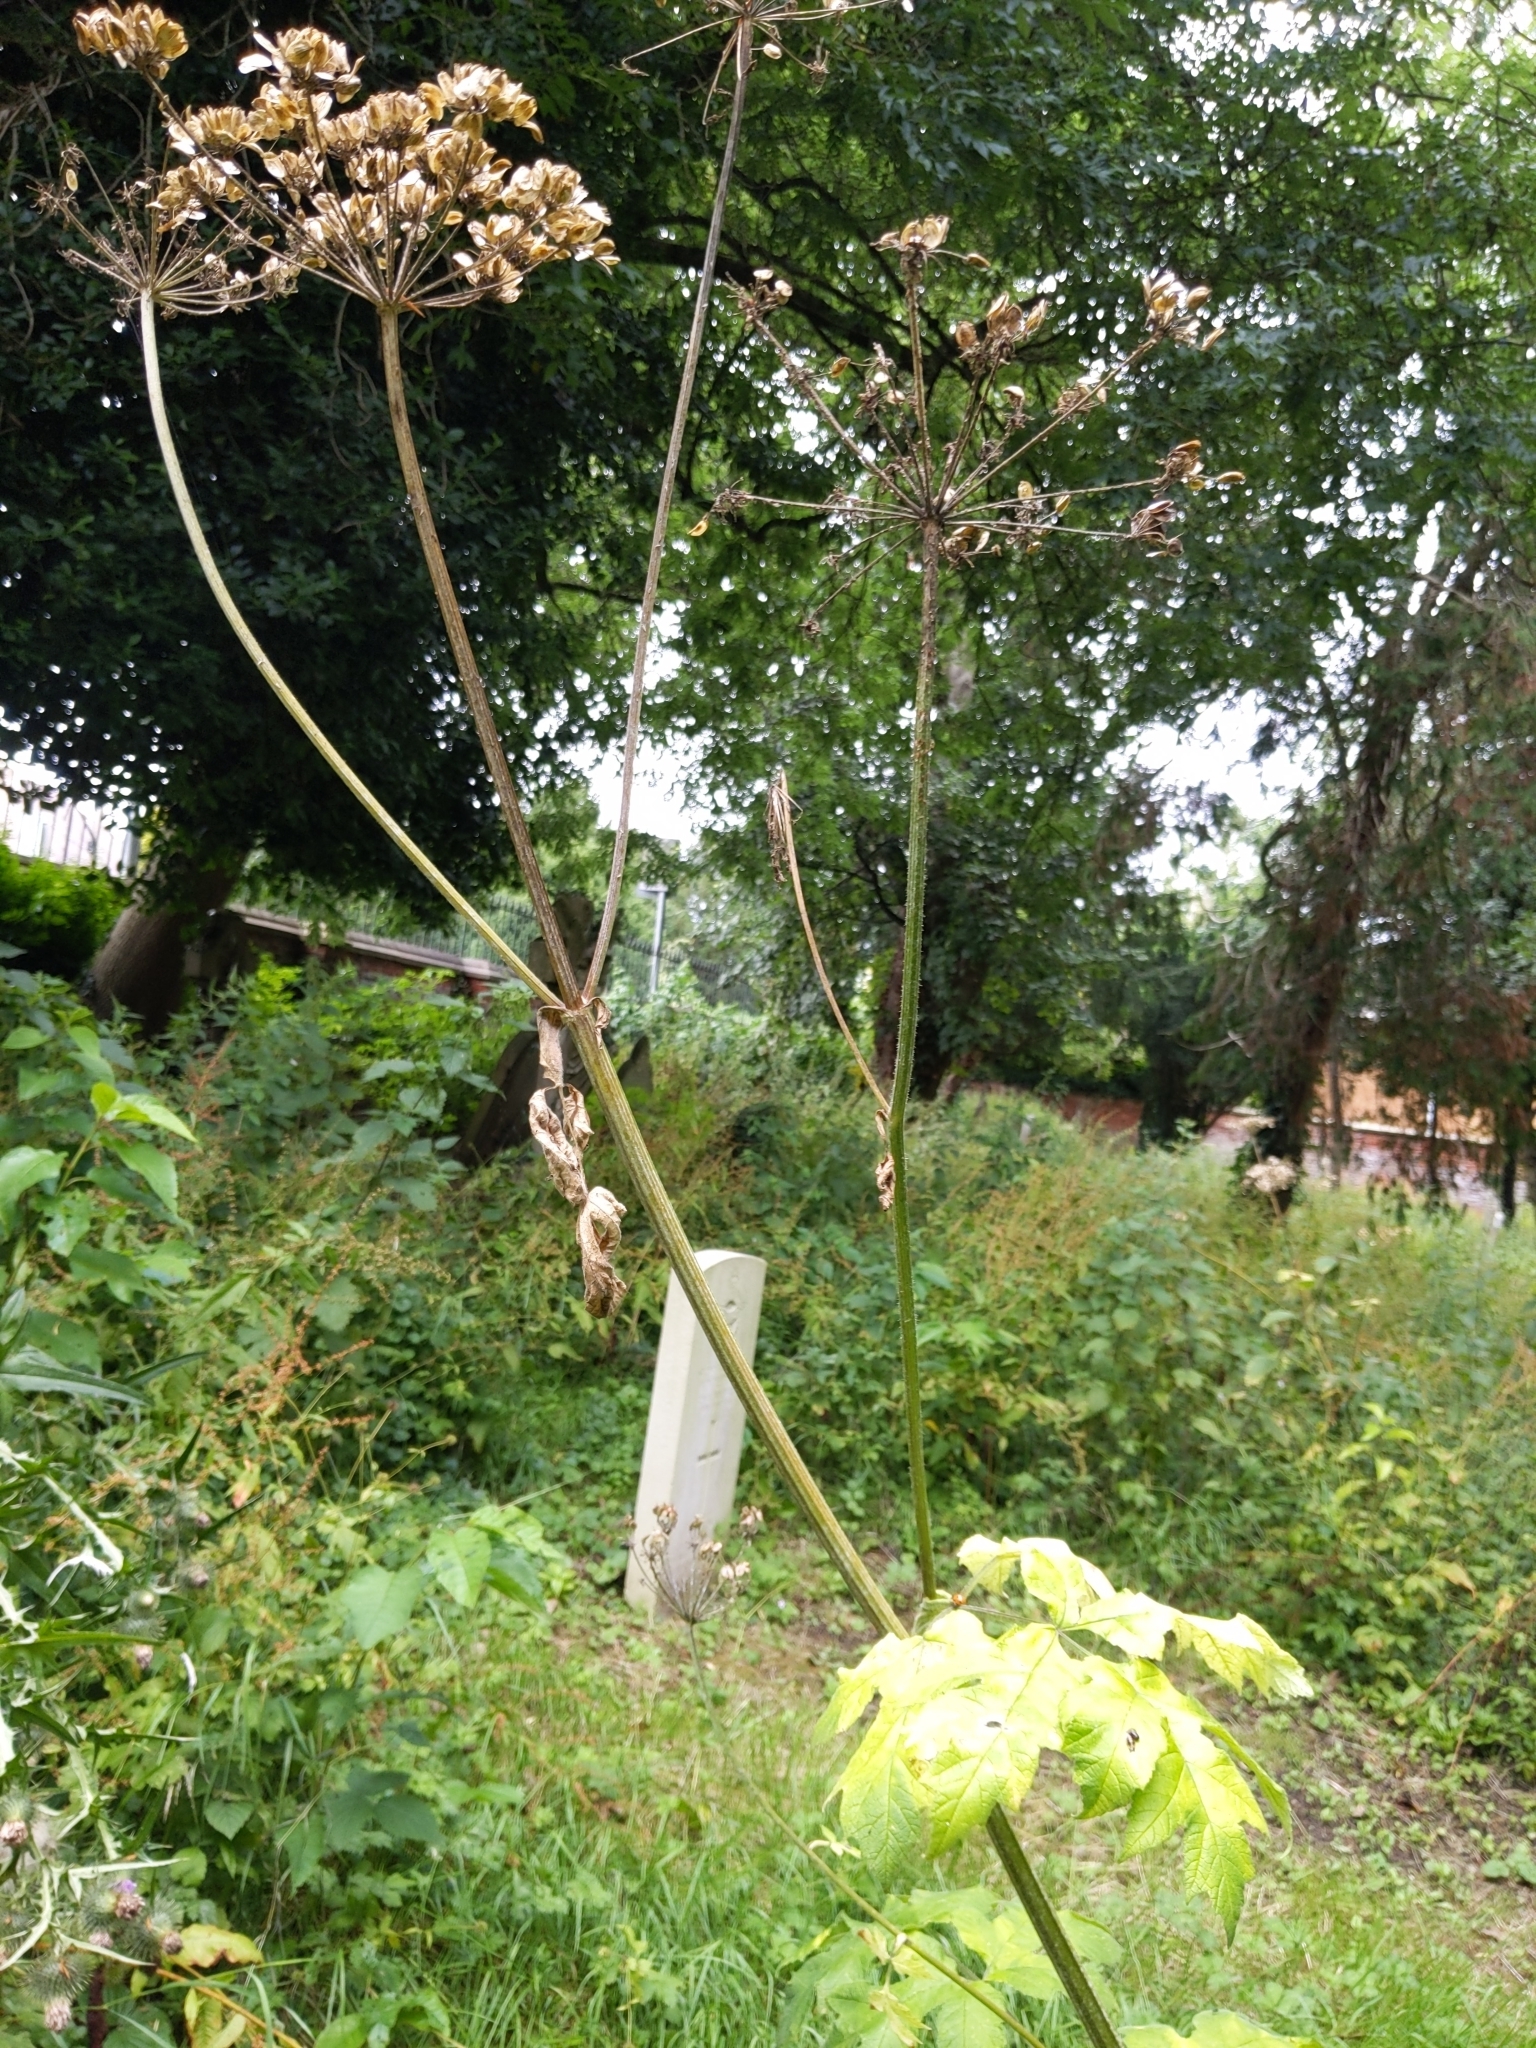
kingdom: Plantae
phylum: Tracheophyta
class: Magnoliopsida
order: Apiales
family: Apiaceae
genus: Heracleum
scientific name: Heracleum sphondylium
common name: Hogweed
